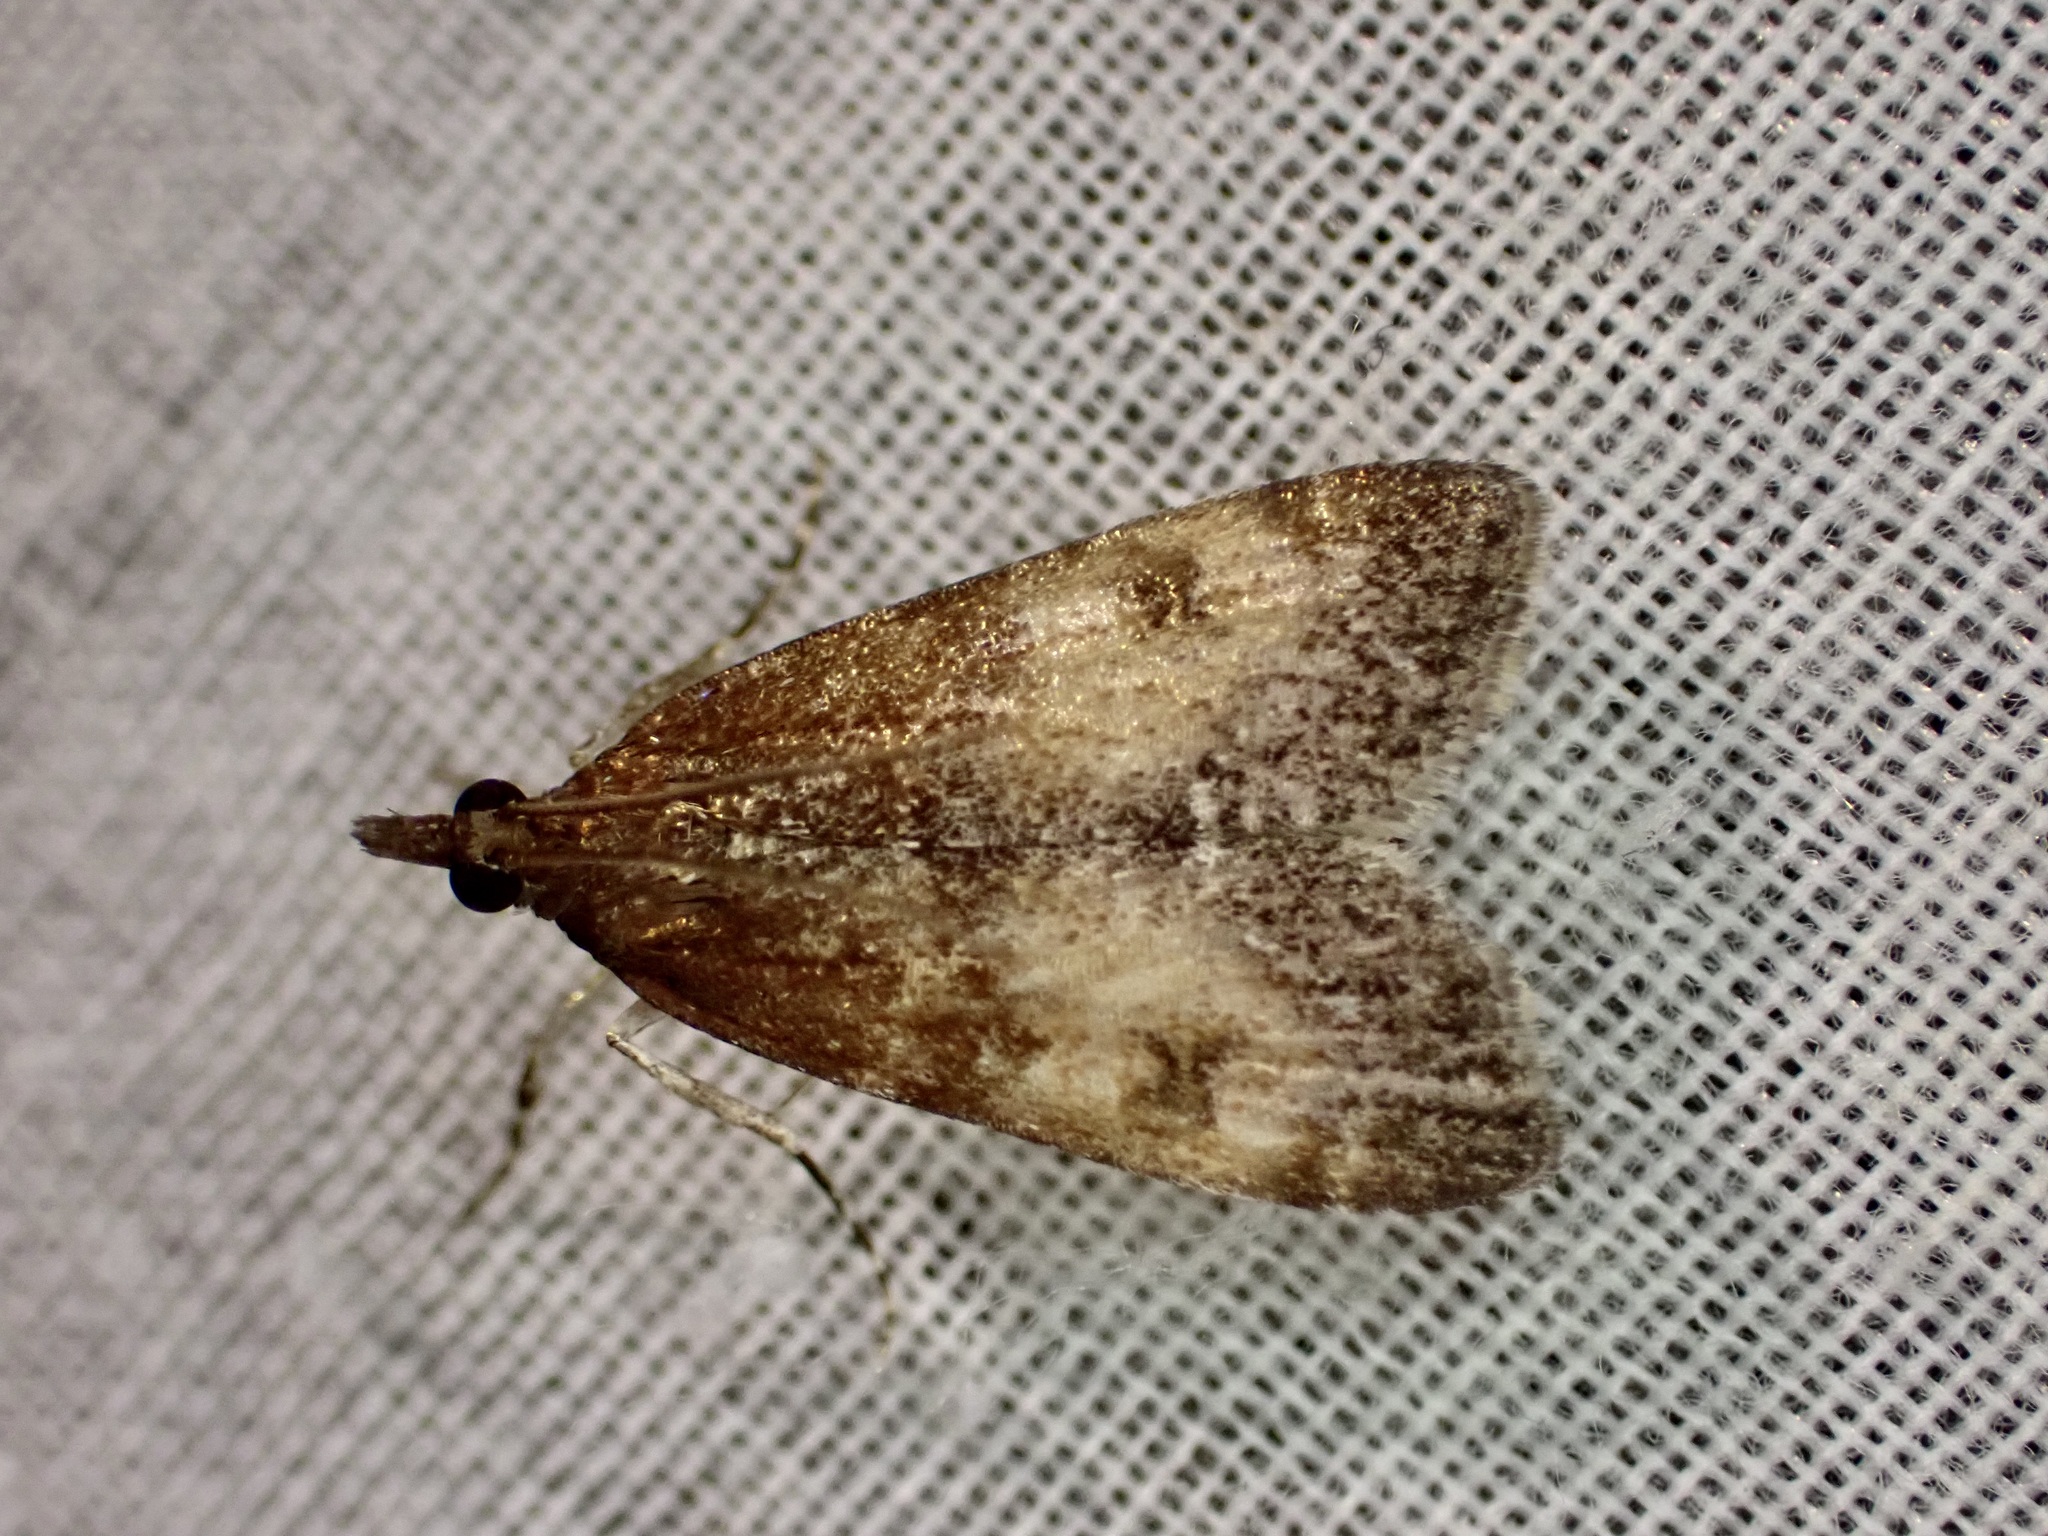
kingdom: Animalia
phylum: Arthropoda
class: Insecta
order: Lepidoptera
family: Crambidae
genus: Eudonia
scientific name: Eudonia asterisca
